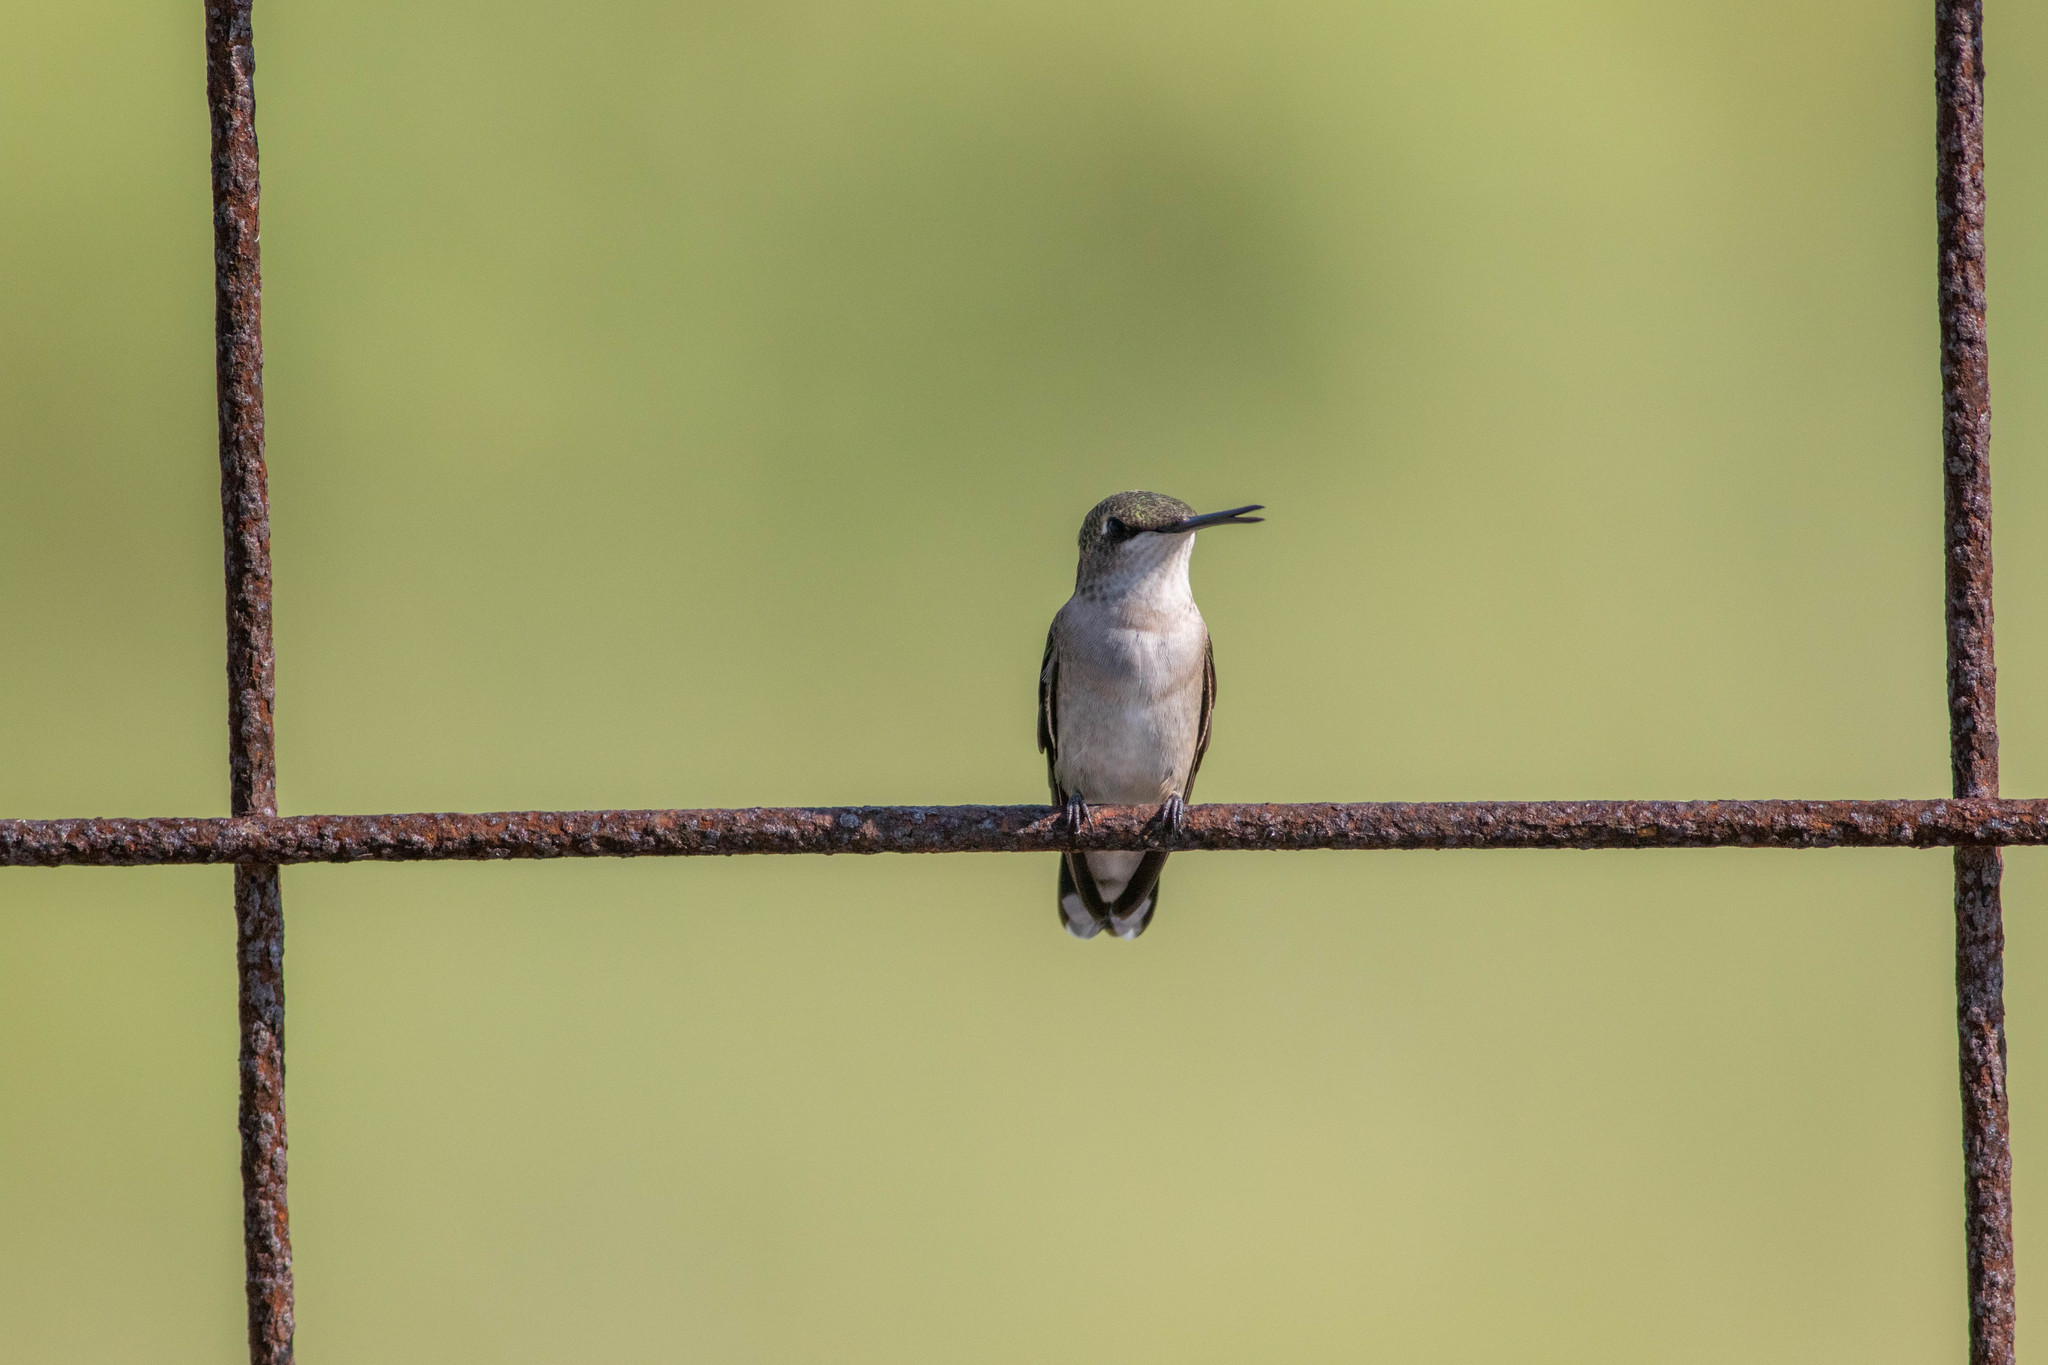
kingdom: Animalia
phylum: Chordata
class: Aves
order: Apodiformes
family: Trochilidae
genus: Archilochus
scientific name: Archilochus colubris
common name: Ruby-throated hummingbird
